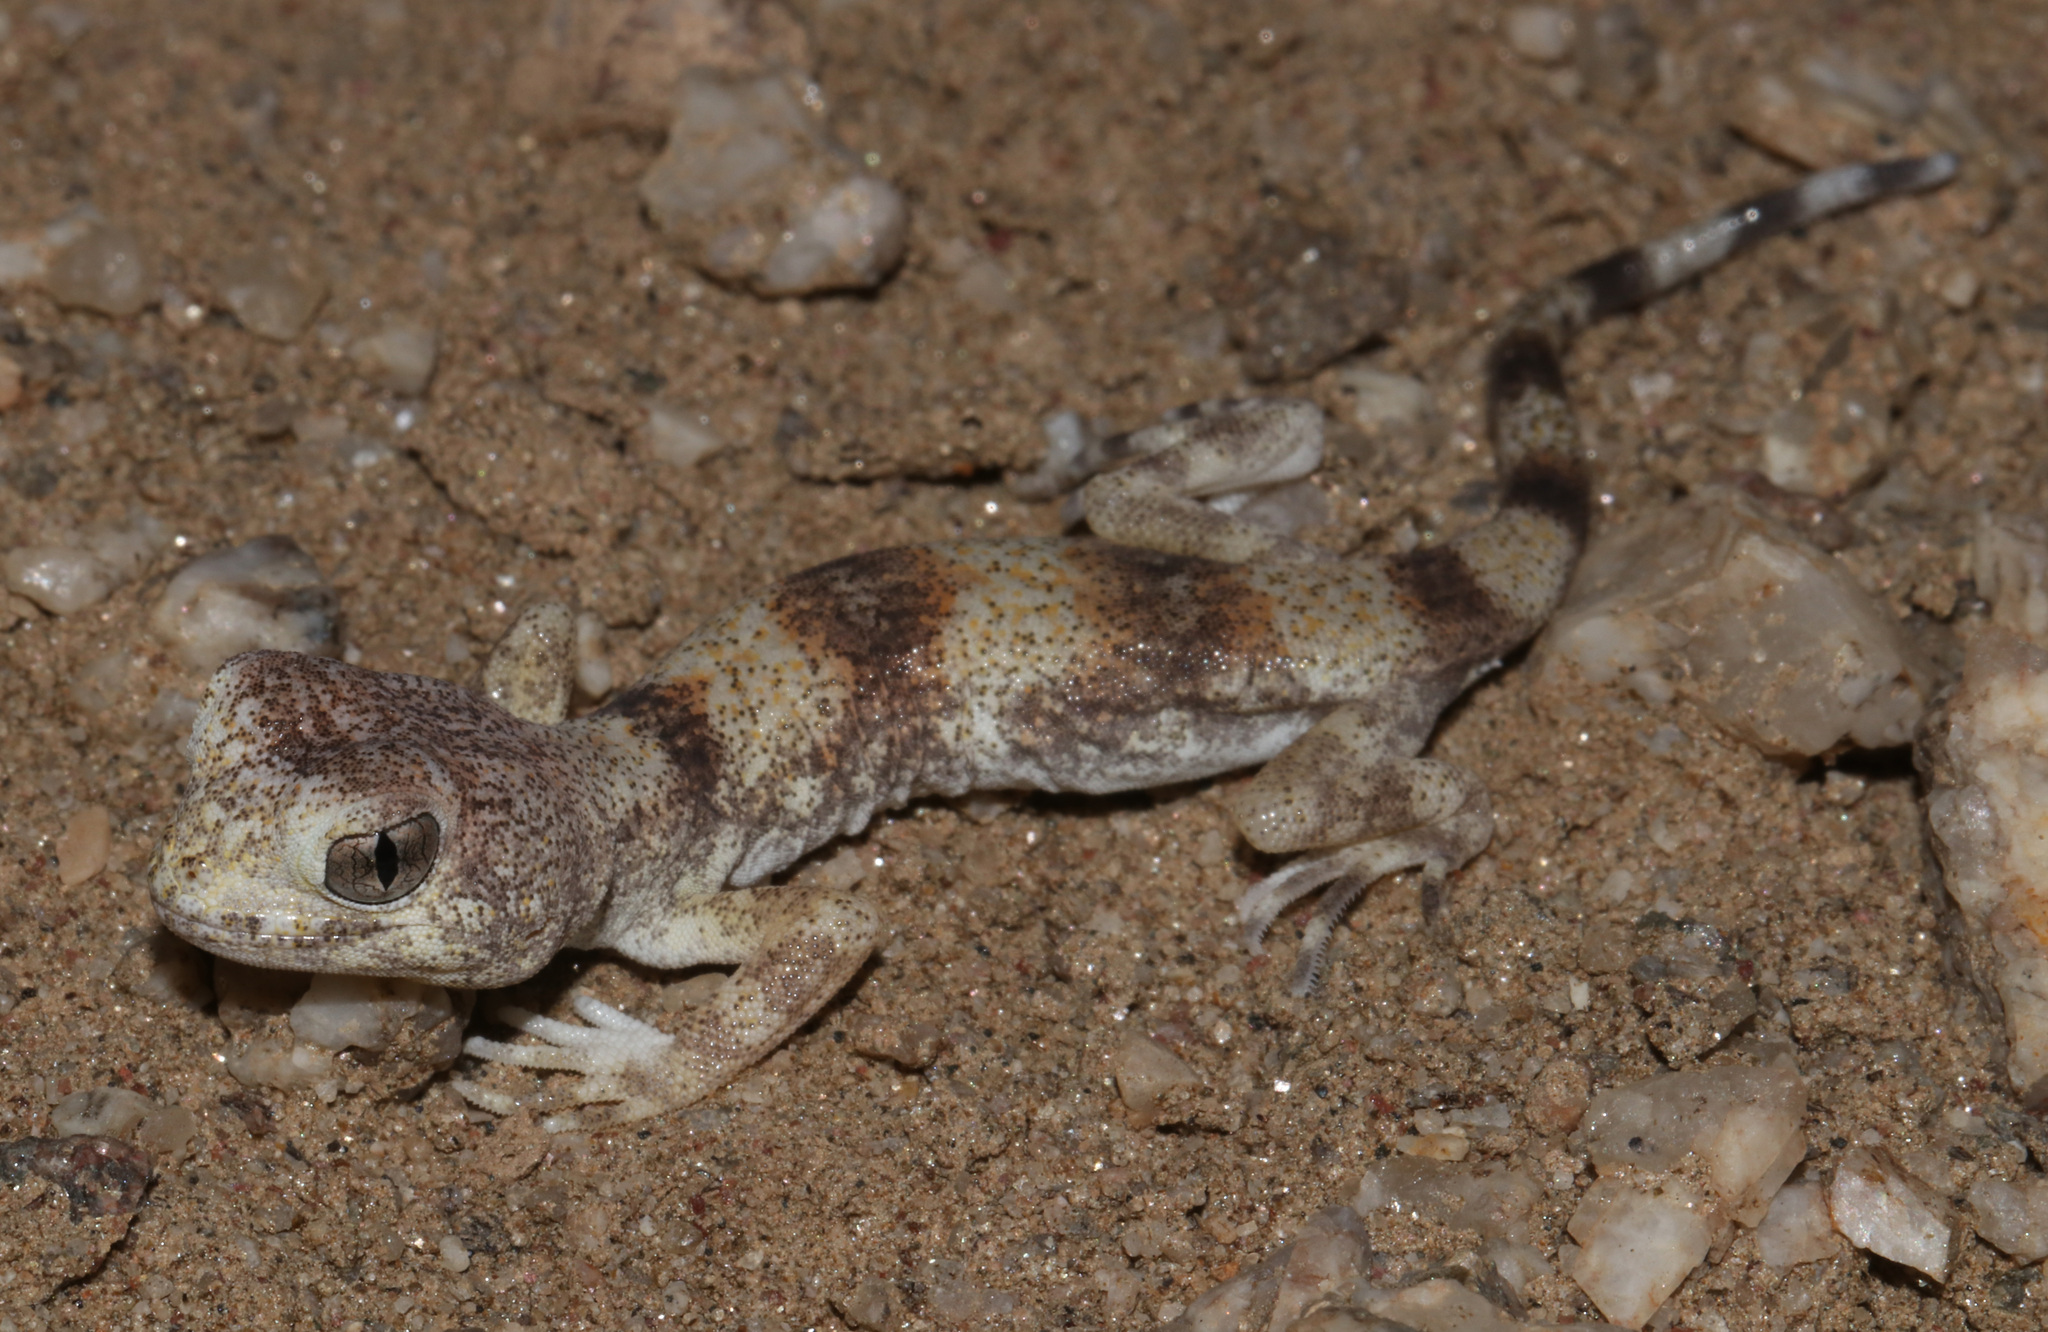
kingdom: Animalia
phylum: Chordata
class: Squamata
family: Gekkonidae
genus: Ptenopus
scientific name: Ptenopus carpi
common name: Namib chirping gecko
